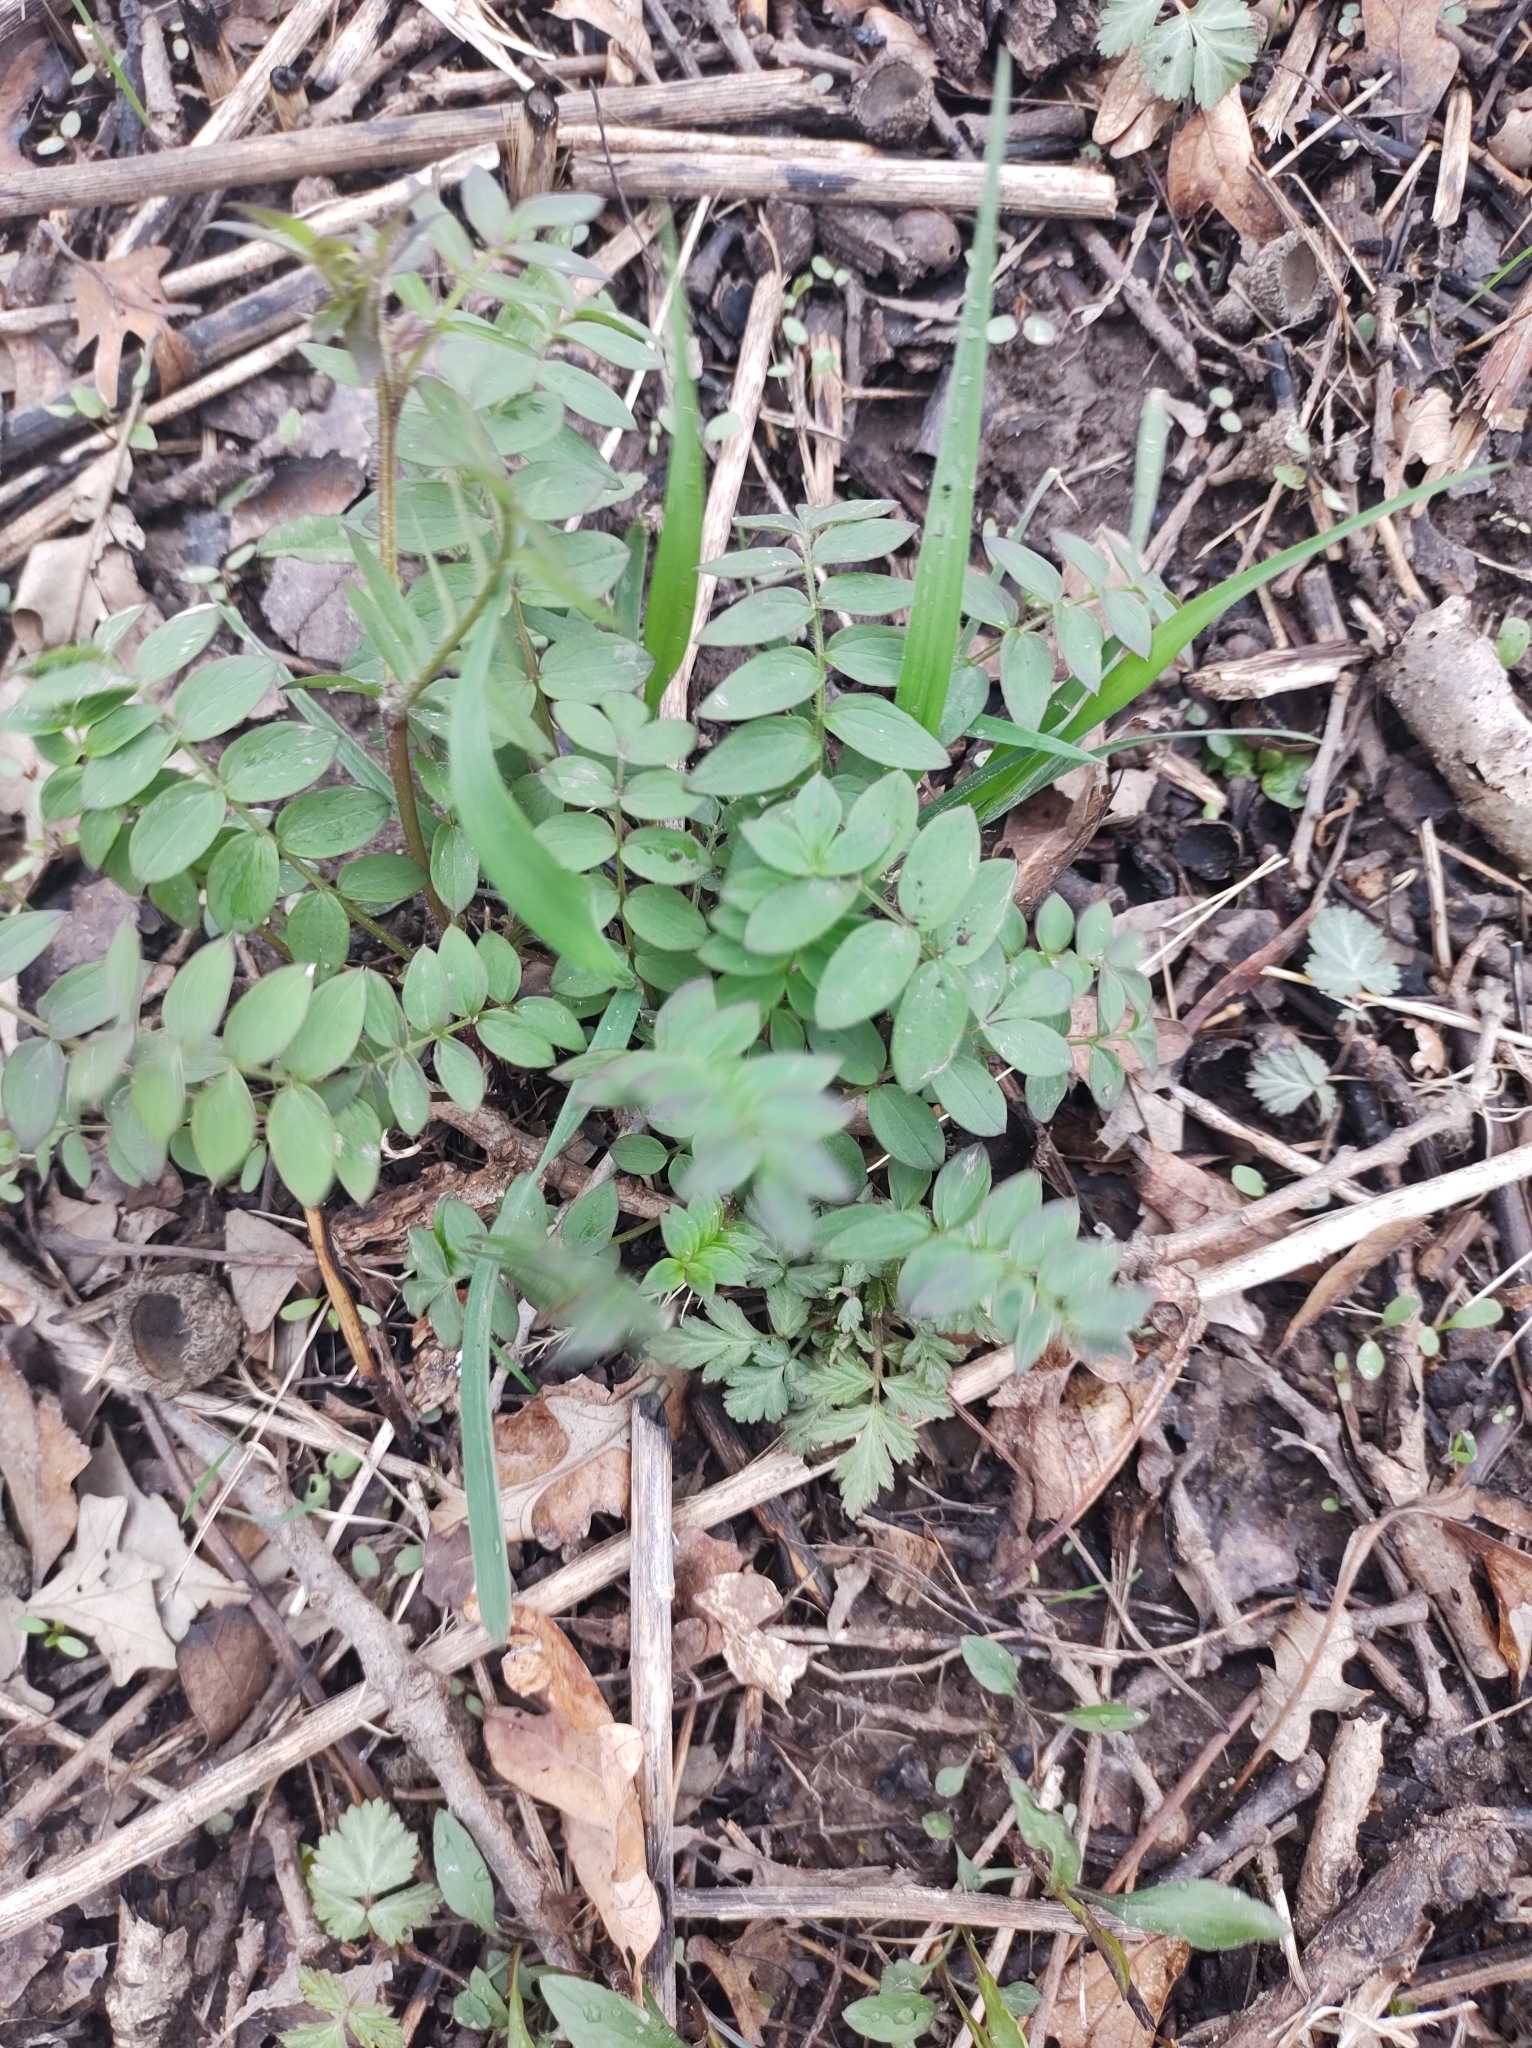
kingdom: Plantae
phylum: Tracheophyta
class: Magnoliopsida
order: Ericales
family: Polemoniaceae
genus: Polemonium
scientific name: Polemonium reptans
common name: Creeping jacob's-ladder
